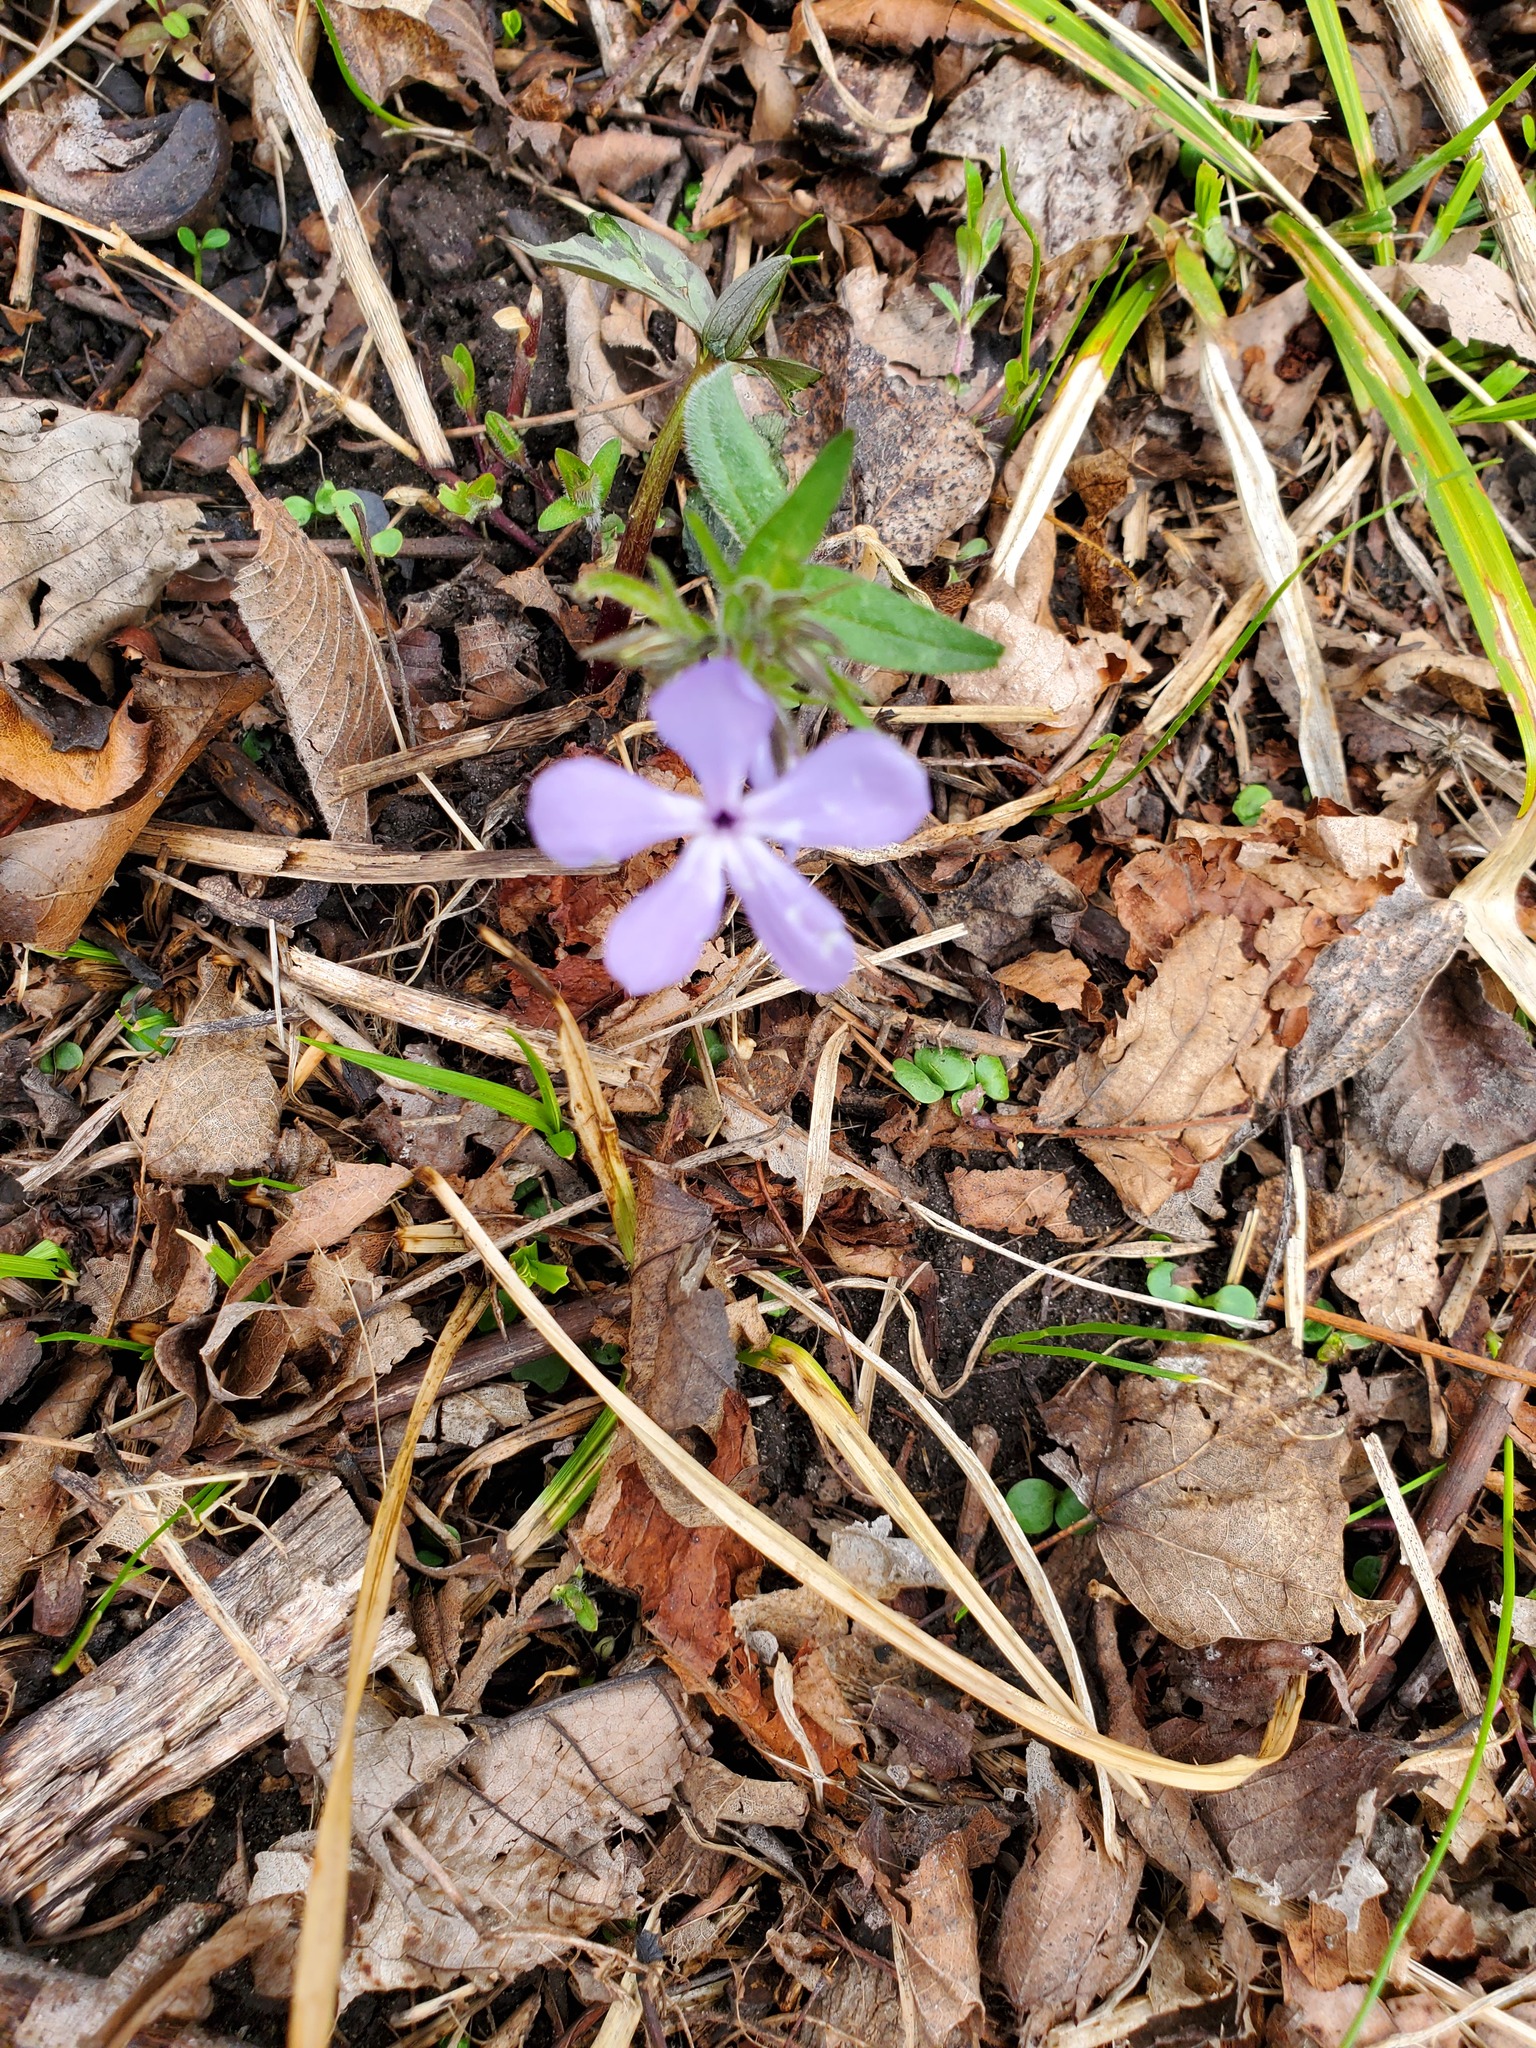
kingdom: Plantae
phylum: Tracheophyta
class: Magnoliopsida
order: Ericales
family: Polemoniaceae
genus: Phlox
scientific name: Phlox divaricata
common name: Blue phlox
